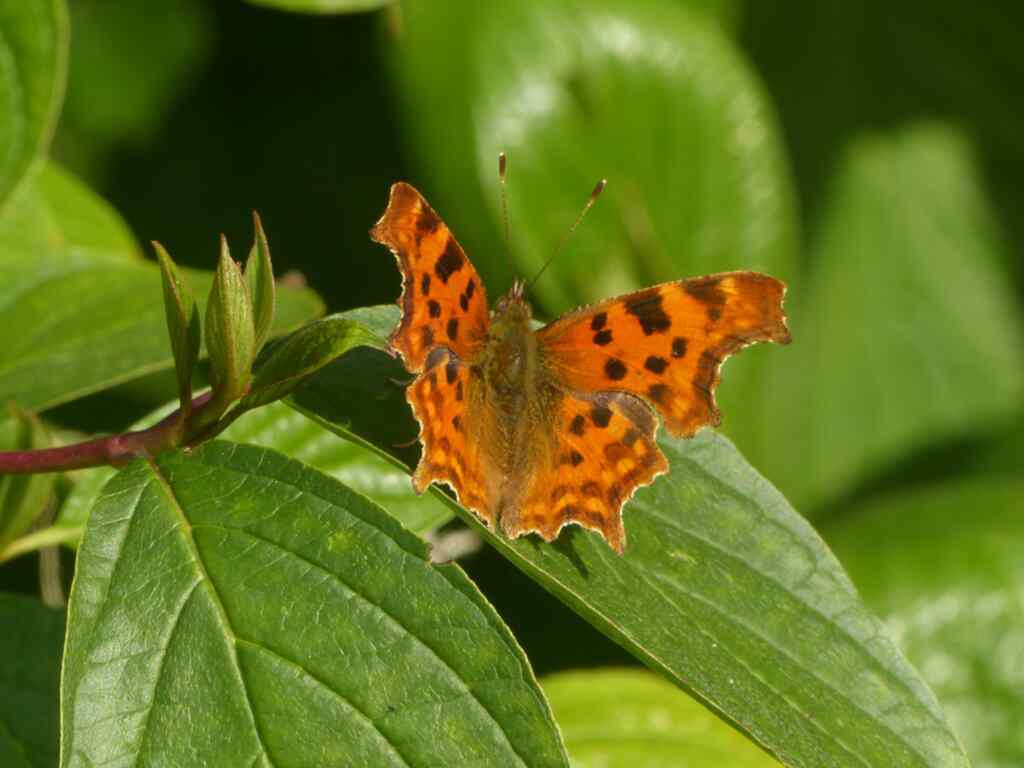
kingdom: Animalia
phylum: Arthropoda
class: Insecta
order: Lepidoptera
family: Nymphalidae
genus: Polygonia
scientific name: Polygonia c-album
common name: Comma
